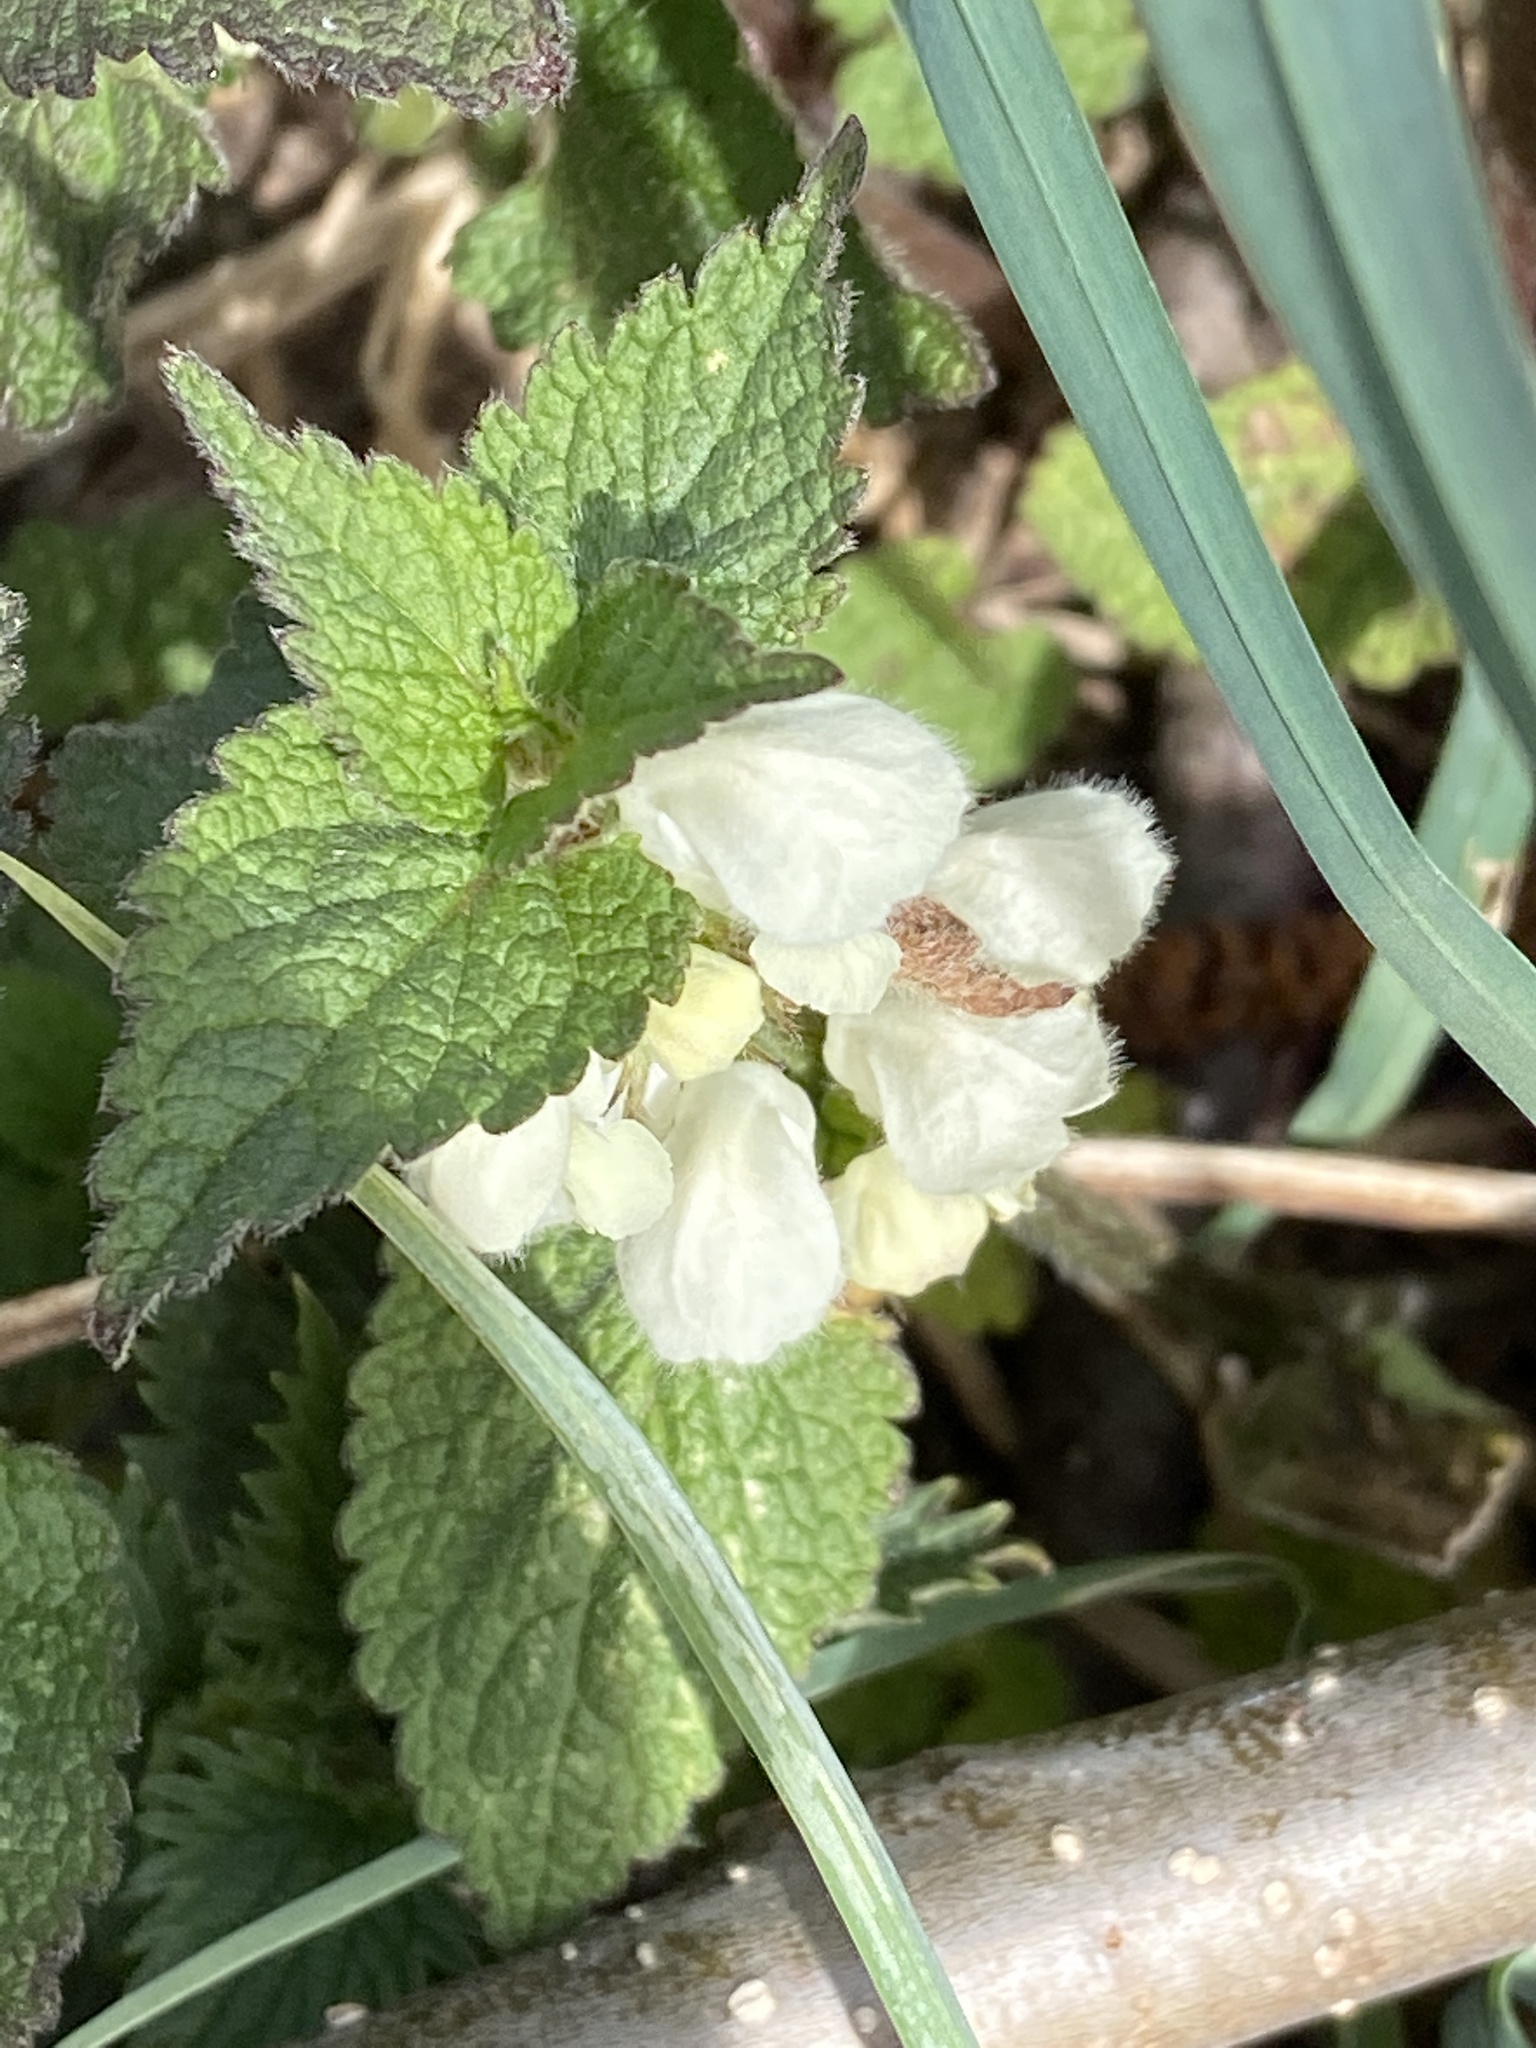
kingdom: Plantae
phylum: Tracheophyta
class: Magnoliopsida
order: Lamiales
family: Lamiaceae
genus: Lamium
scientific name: Lamium album
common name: White dead-nettle
